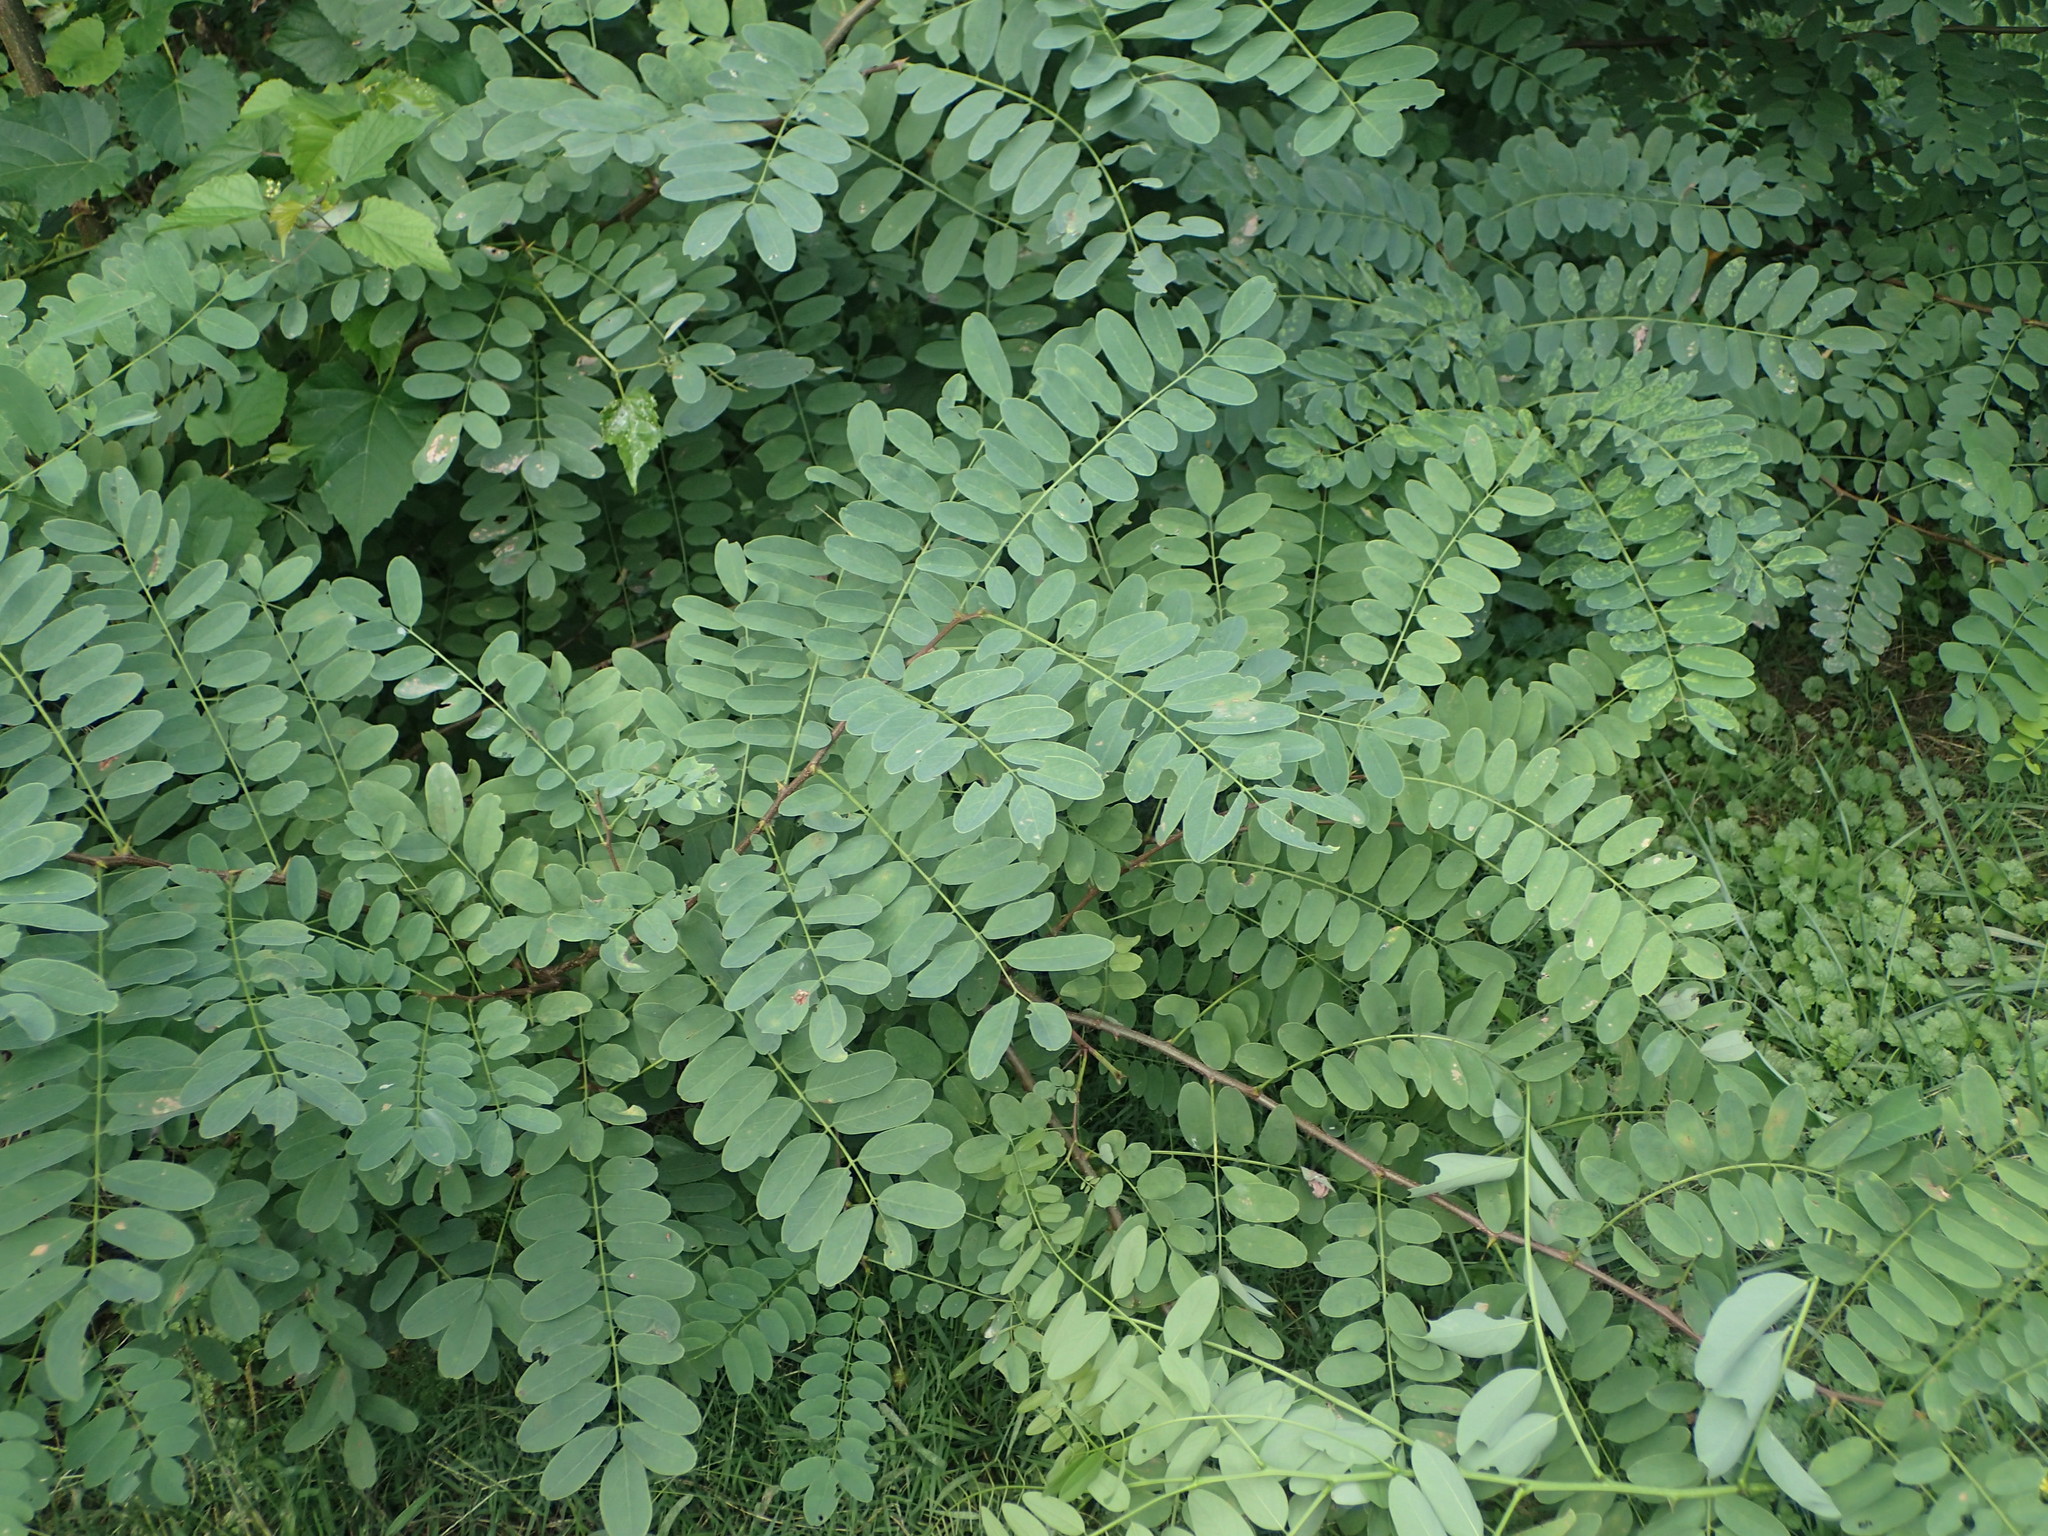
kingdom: Plantae
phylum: Tracheophyta
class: Magnoliopsida
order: Fabales
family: Fabaceae
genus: Robinia
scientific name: Robinia pseudoacacia
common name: Black locust
